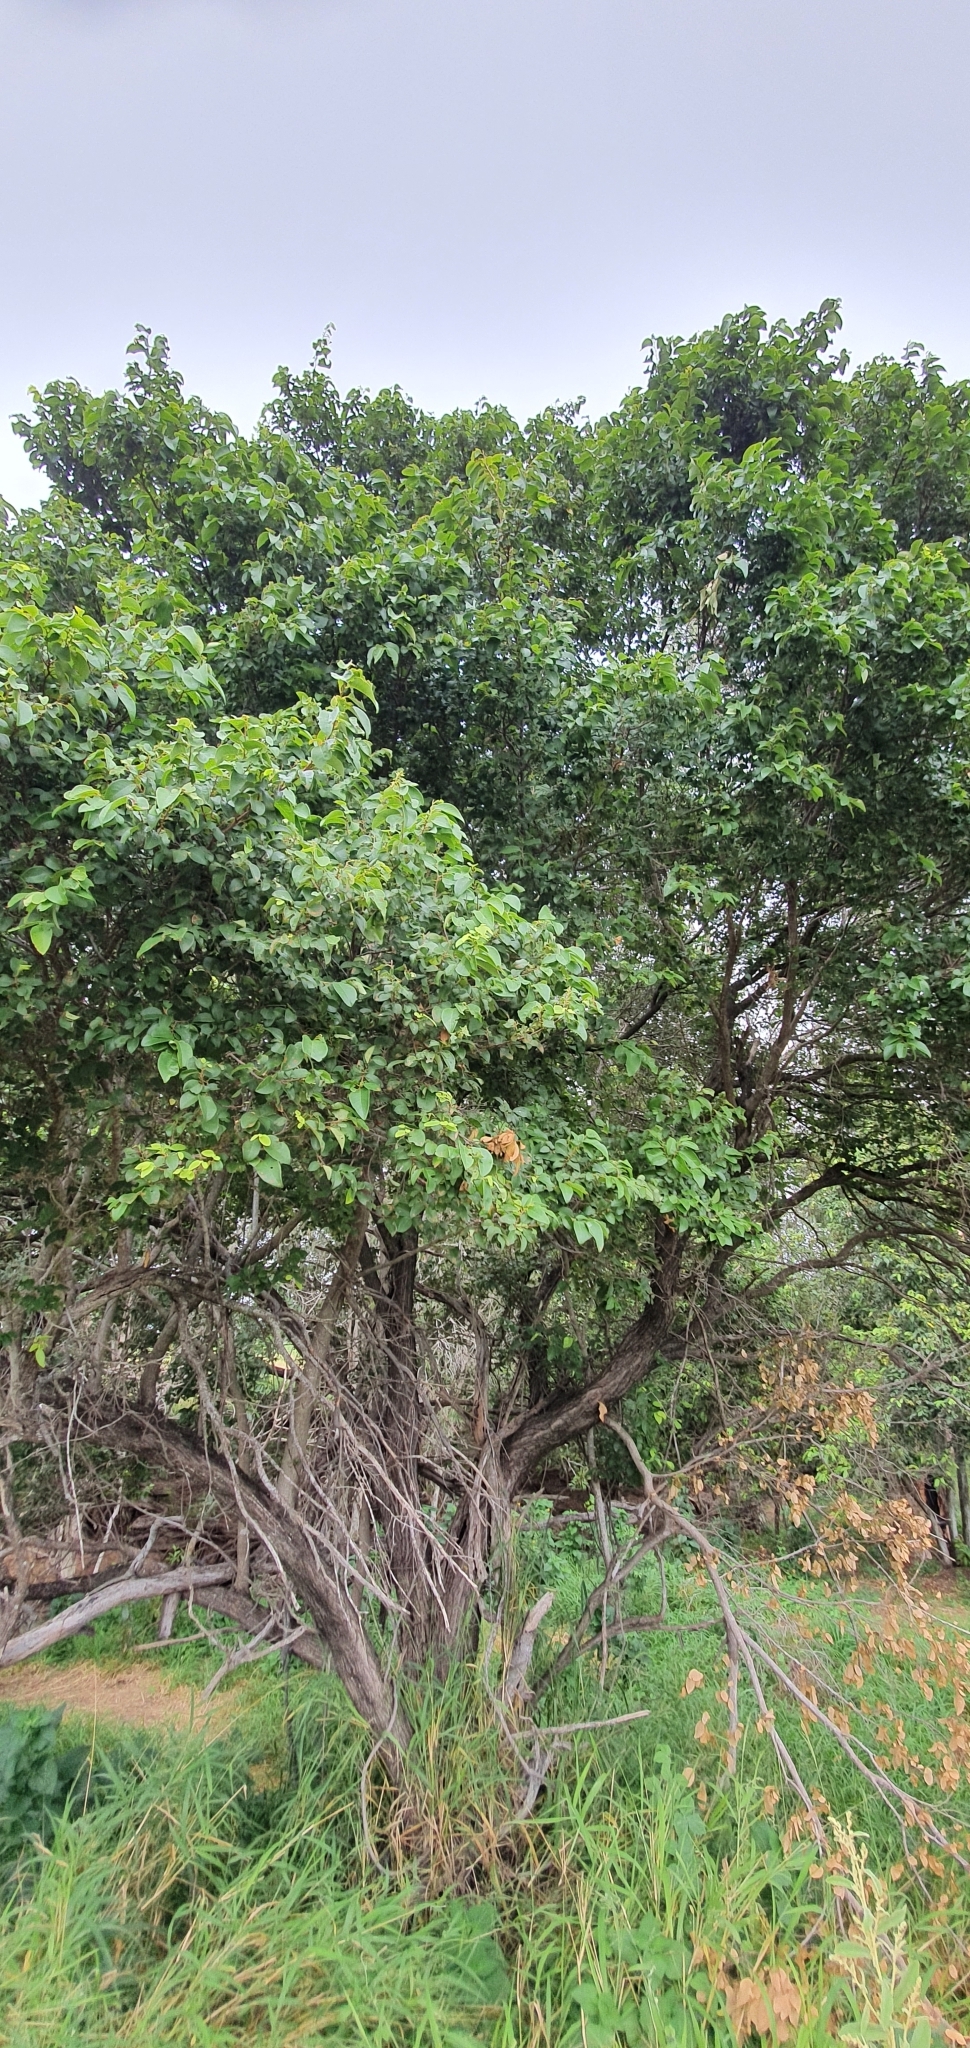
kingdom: Plantae
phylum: Tracheophyta
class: Magnoliopsida
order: Malpighiales
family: Phyllanthaceae
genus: Bridelia
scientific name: Bridelia leichhardtii
